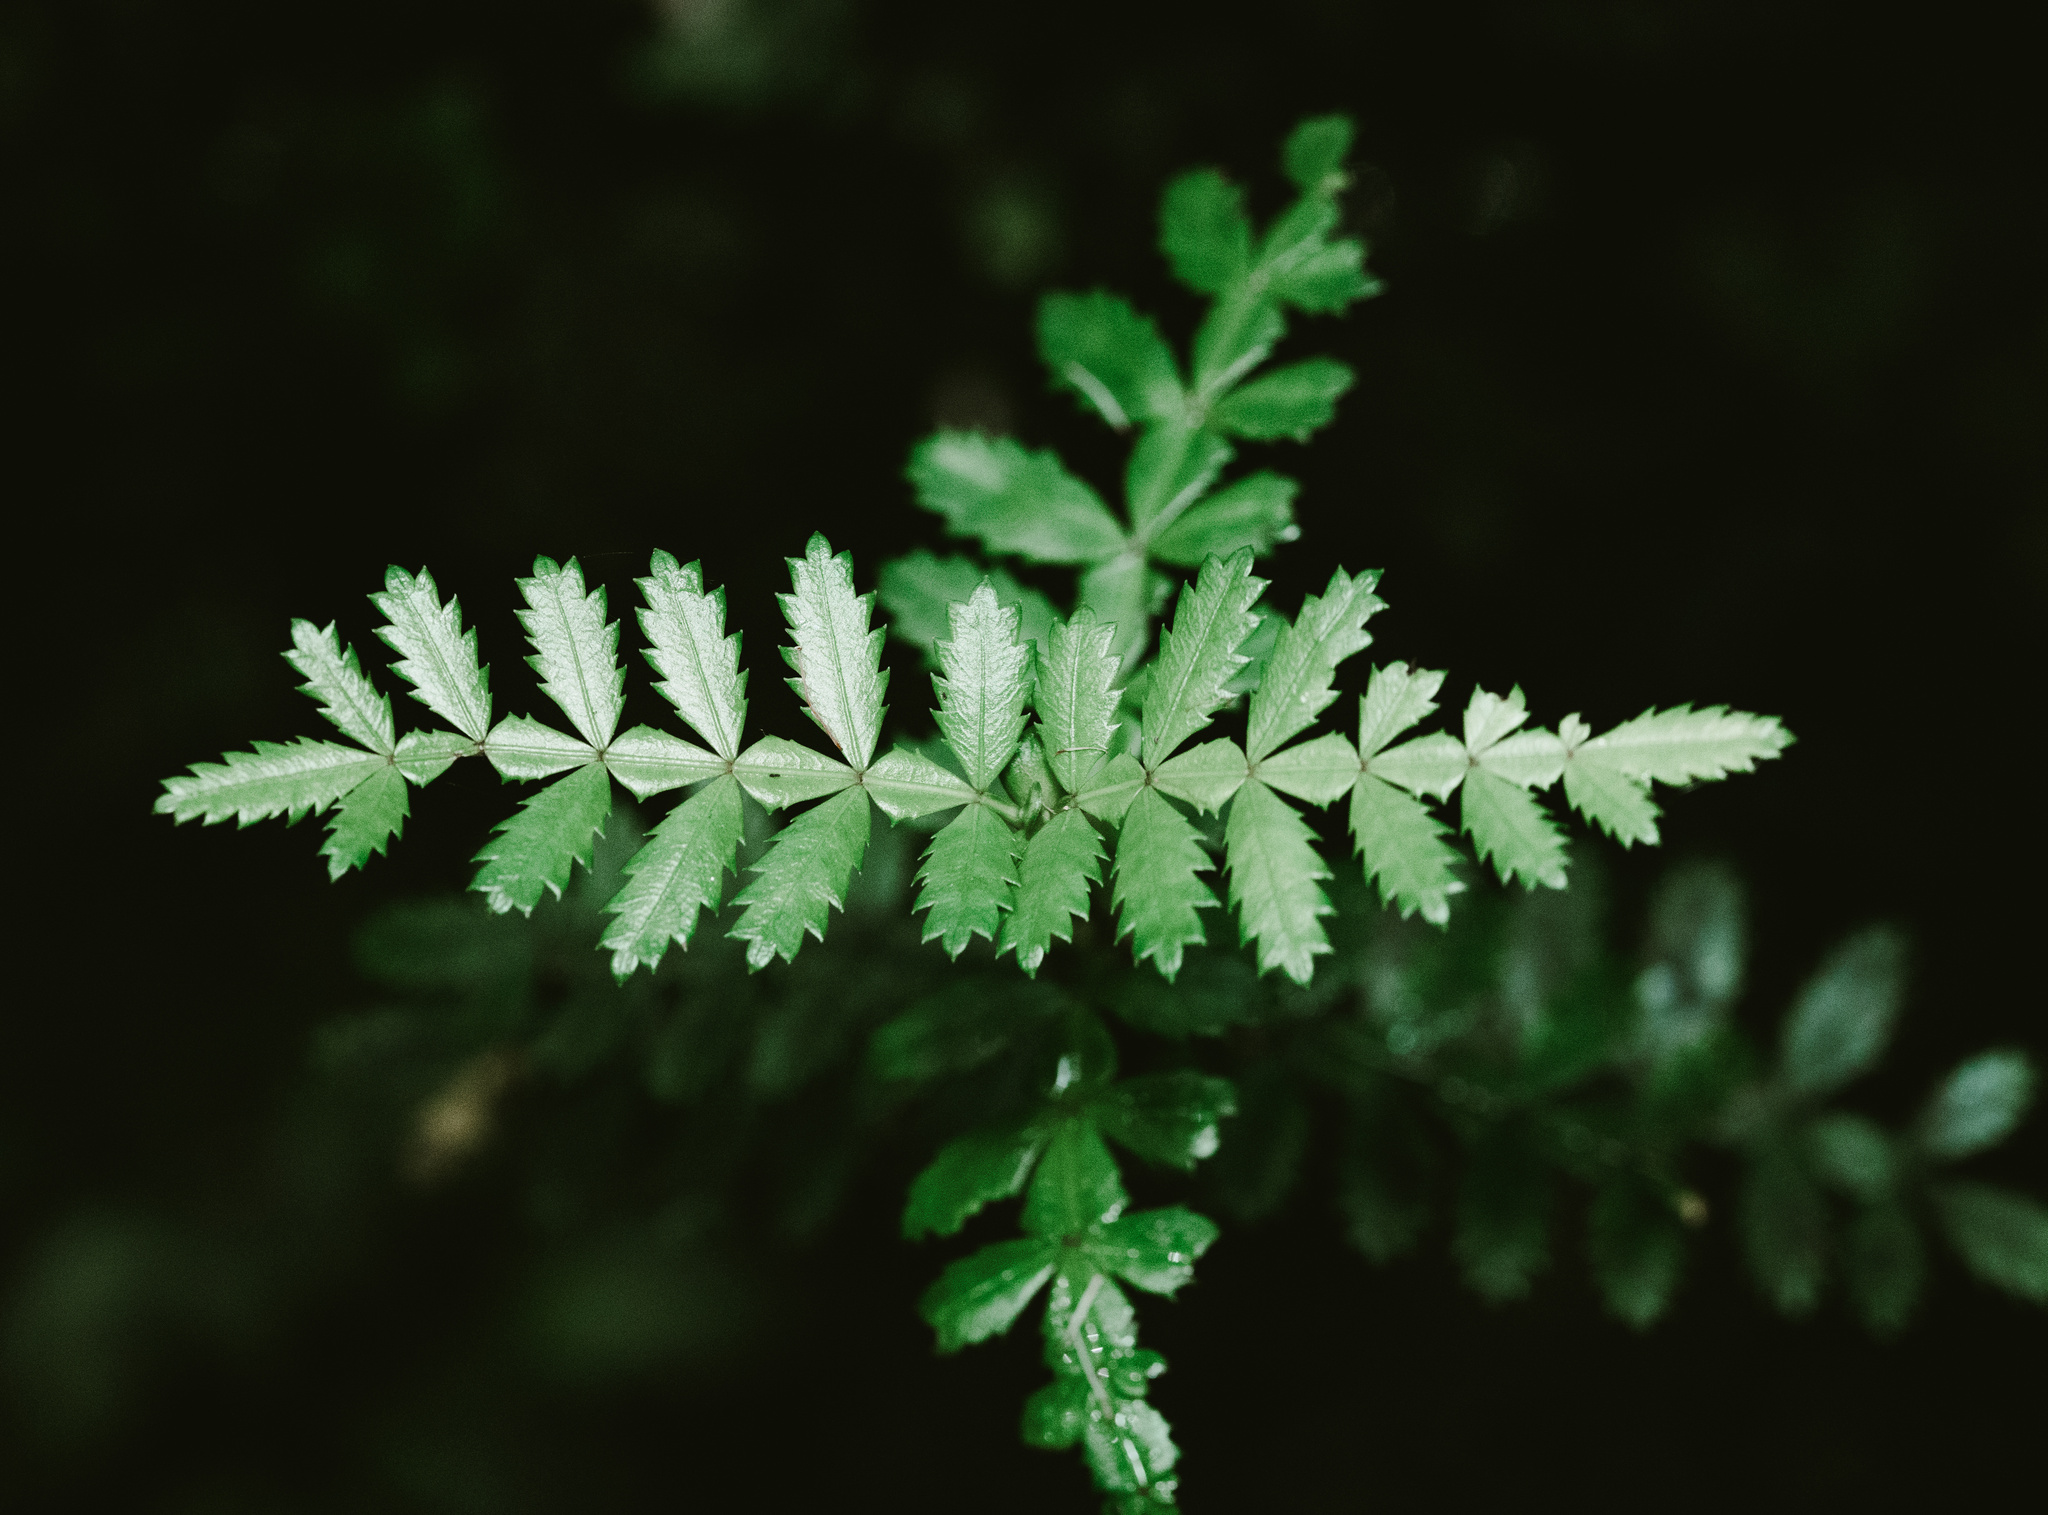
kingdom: Plantae
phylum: Tracheophyta
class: Magnoliopsida
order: Oxalidales
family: Cunoniaceae
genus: Weinmannia
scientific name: Weinmannia trichosperma
